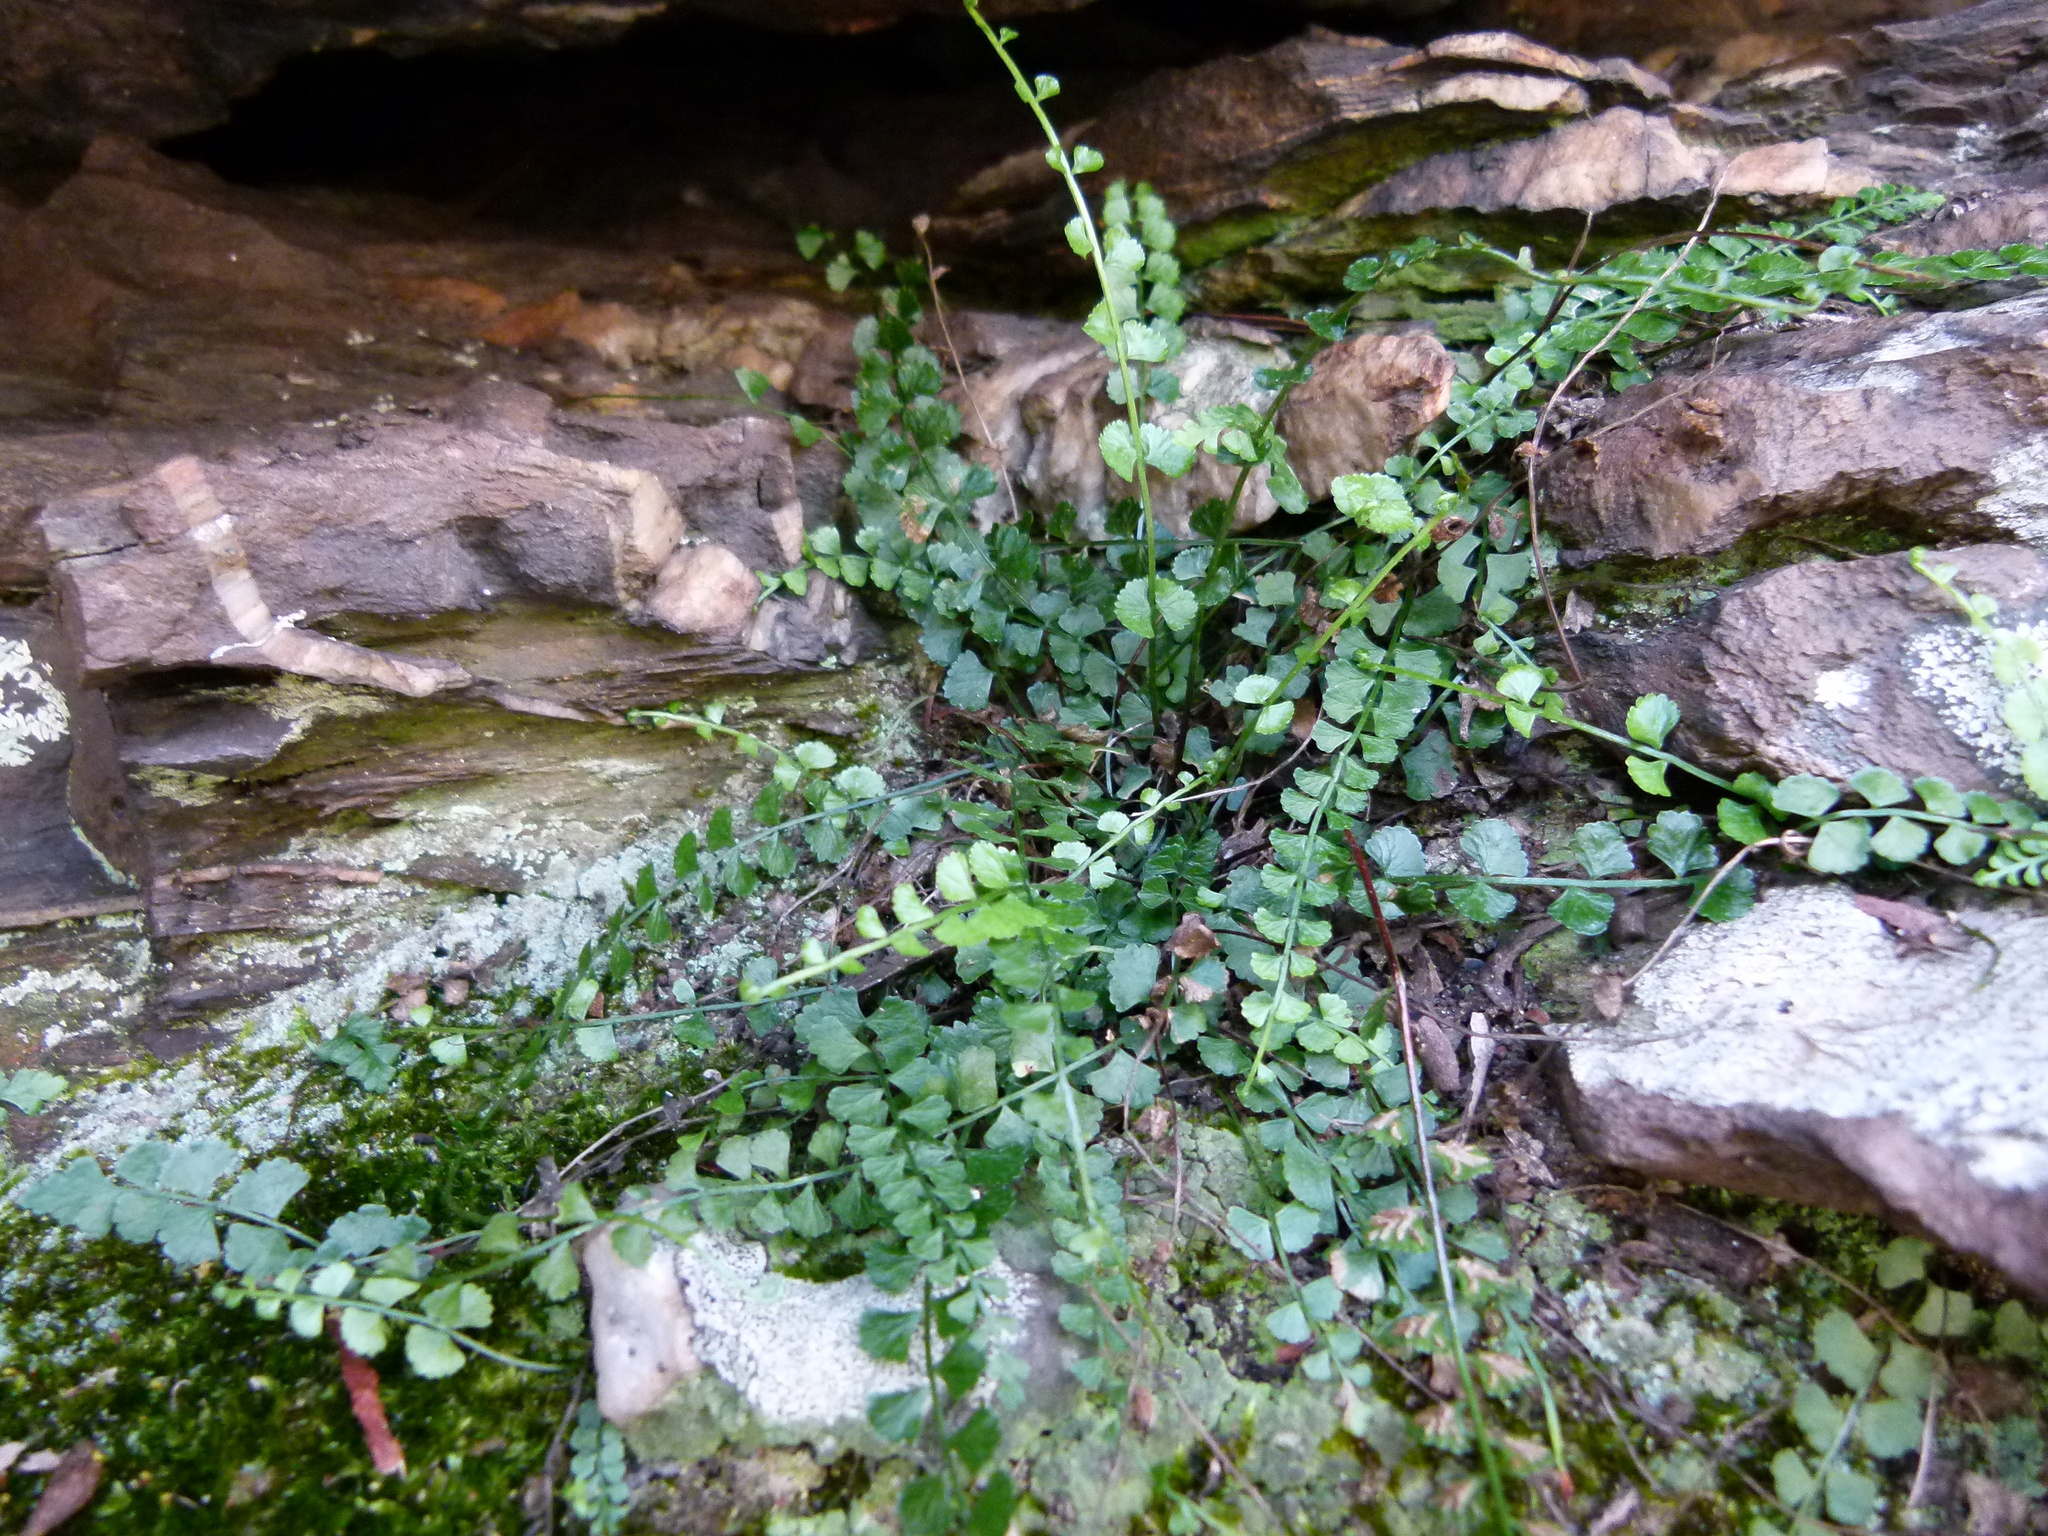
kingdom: Plantae
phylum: Tracheophyta
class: Polypodiopsida
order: Polypodiales
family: Aspleniaceae
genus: Asplenium
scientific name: Asplenium flabellifolium
